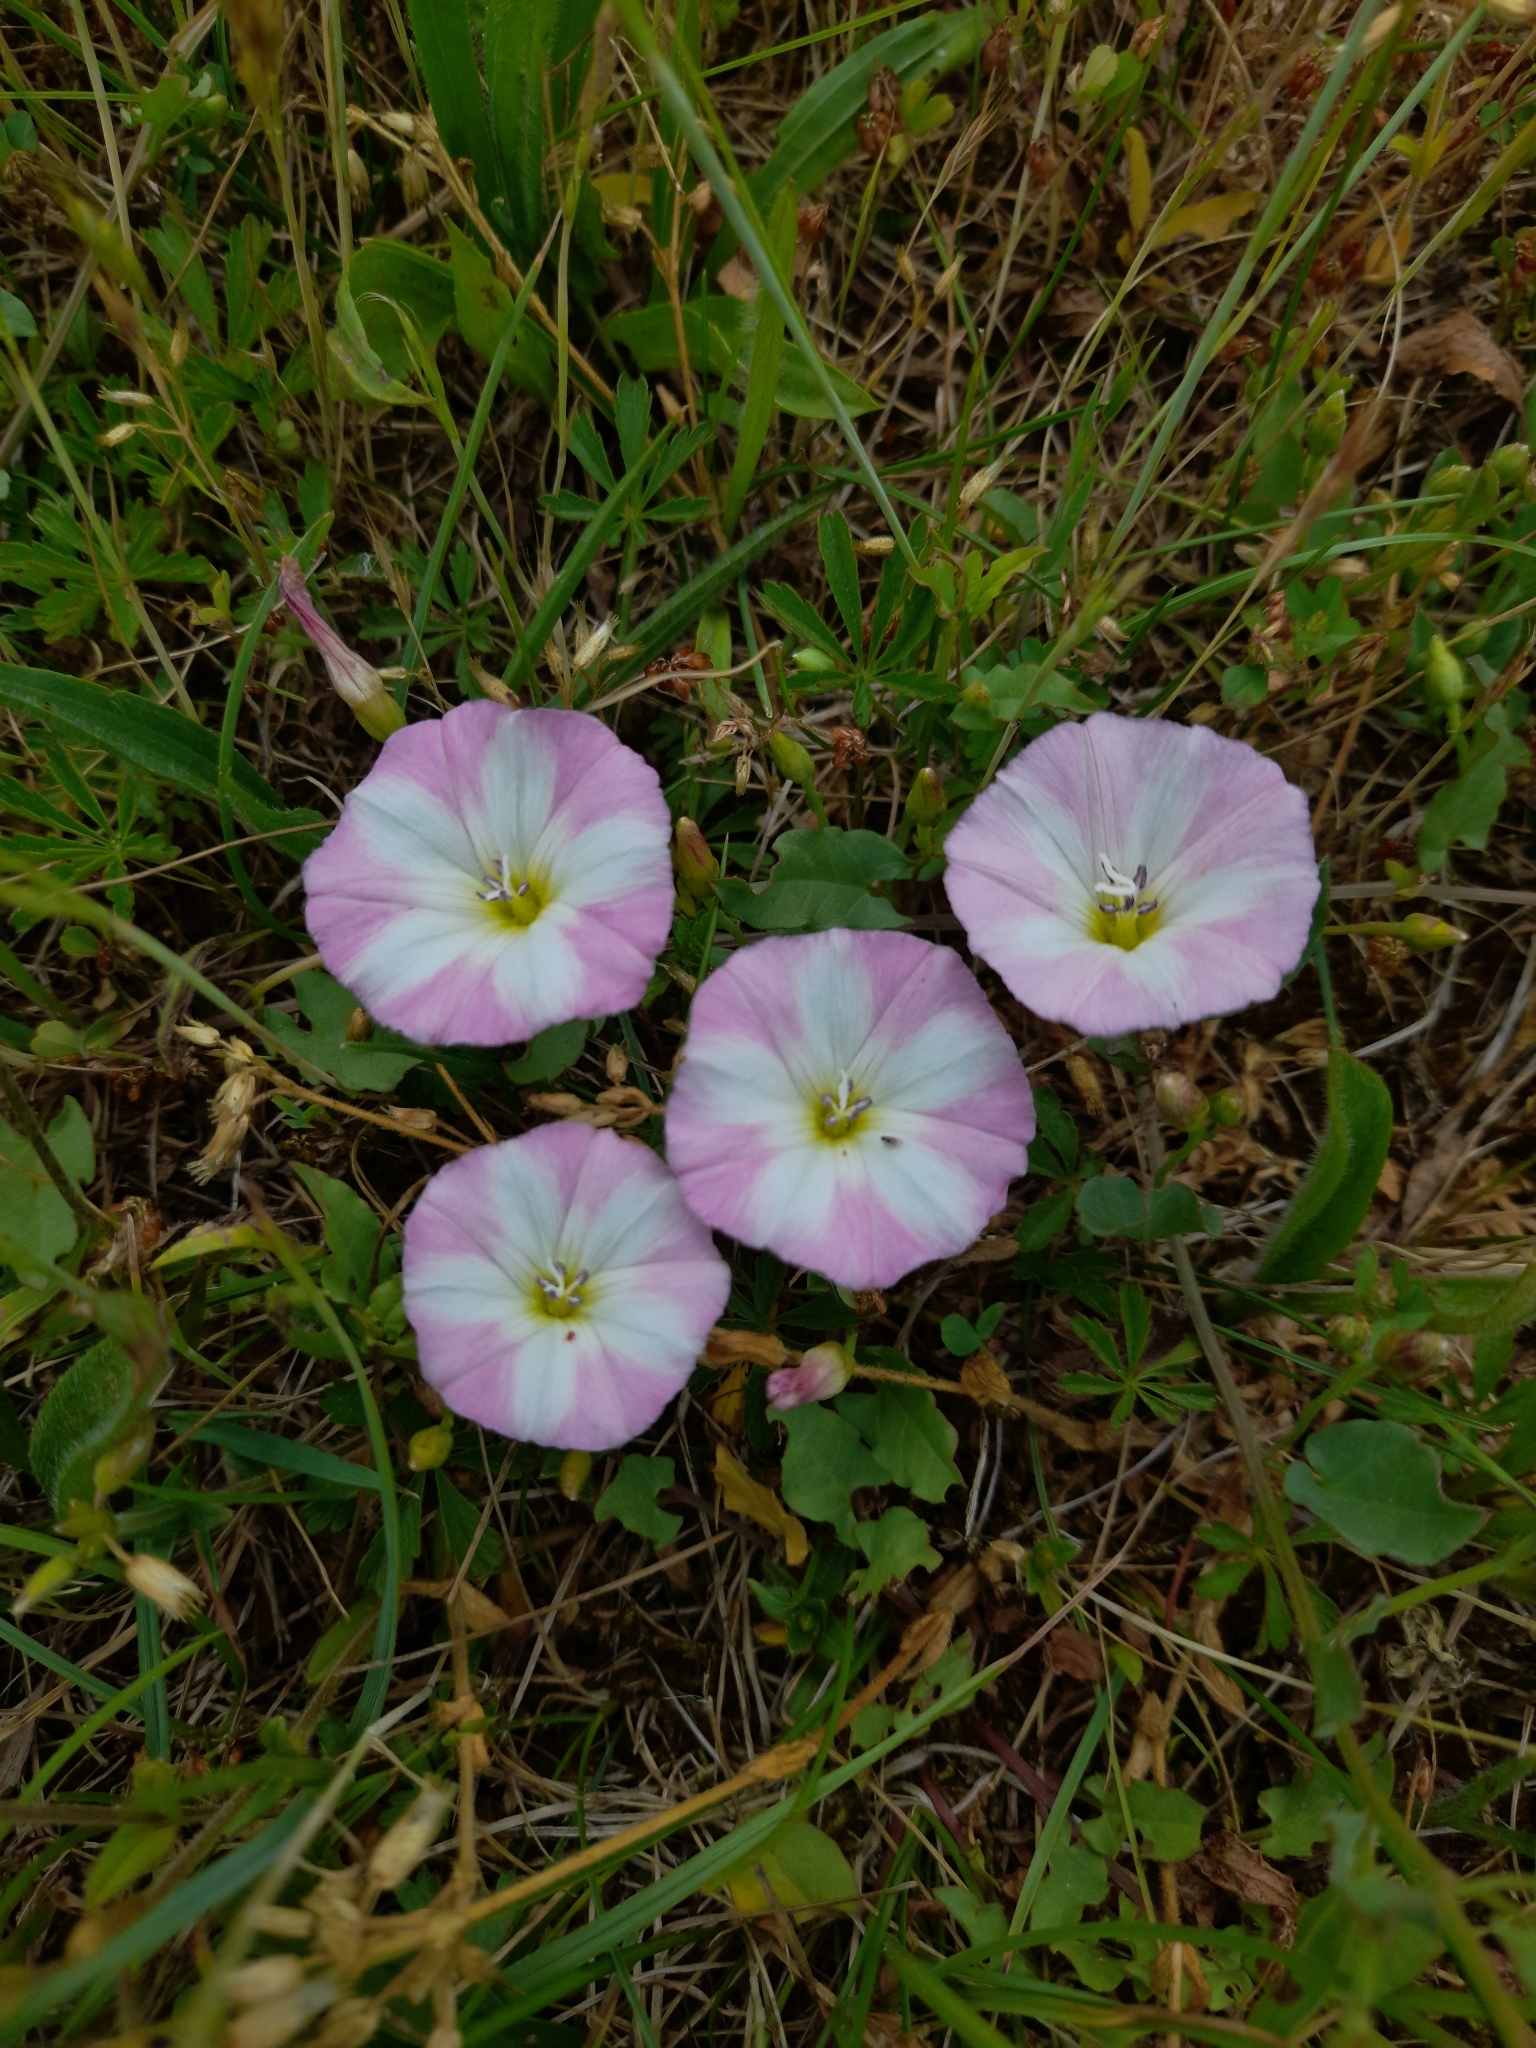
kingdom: Plantae
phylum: Tracheophyta
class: Magnoliopsida
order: Solanales
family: Convolvulaceae
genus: Convolvulus
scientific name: Convolvulus arvensis
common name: Field bindweed
